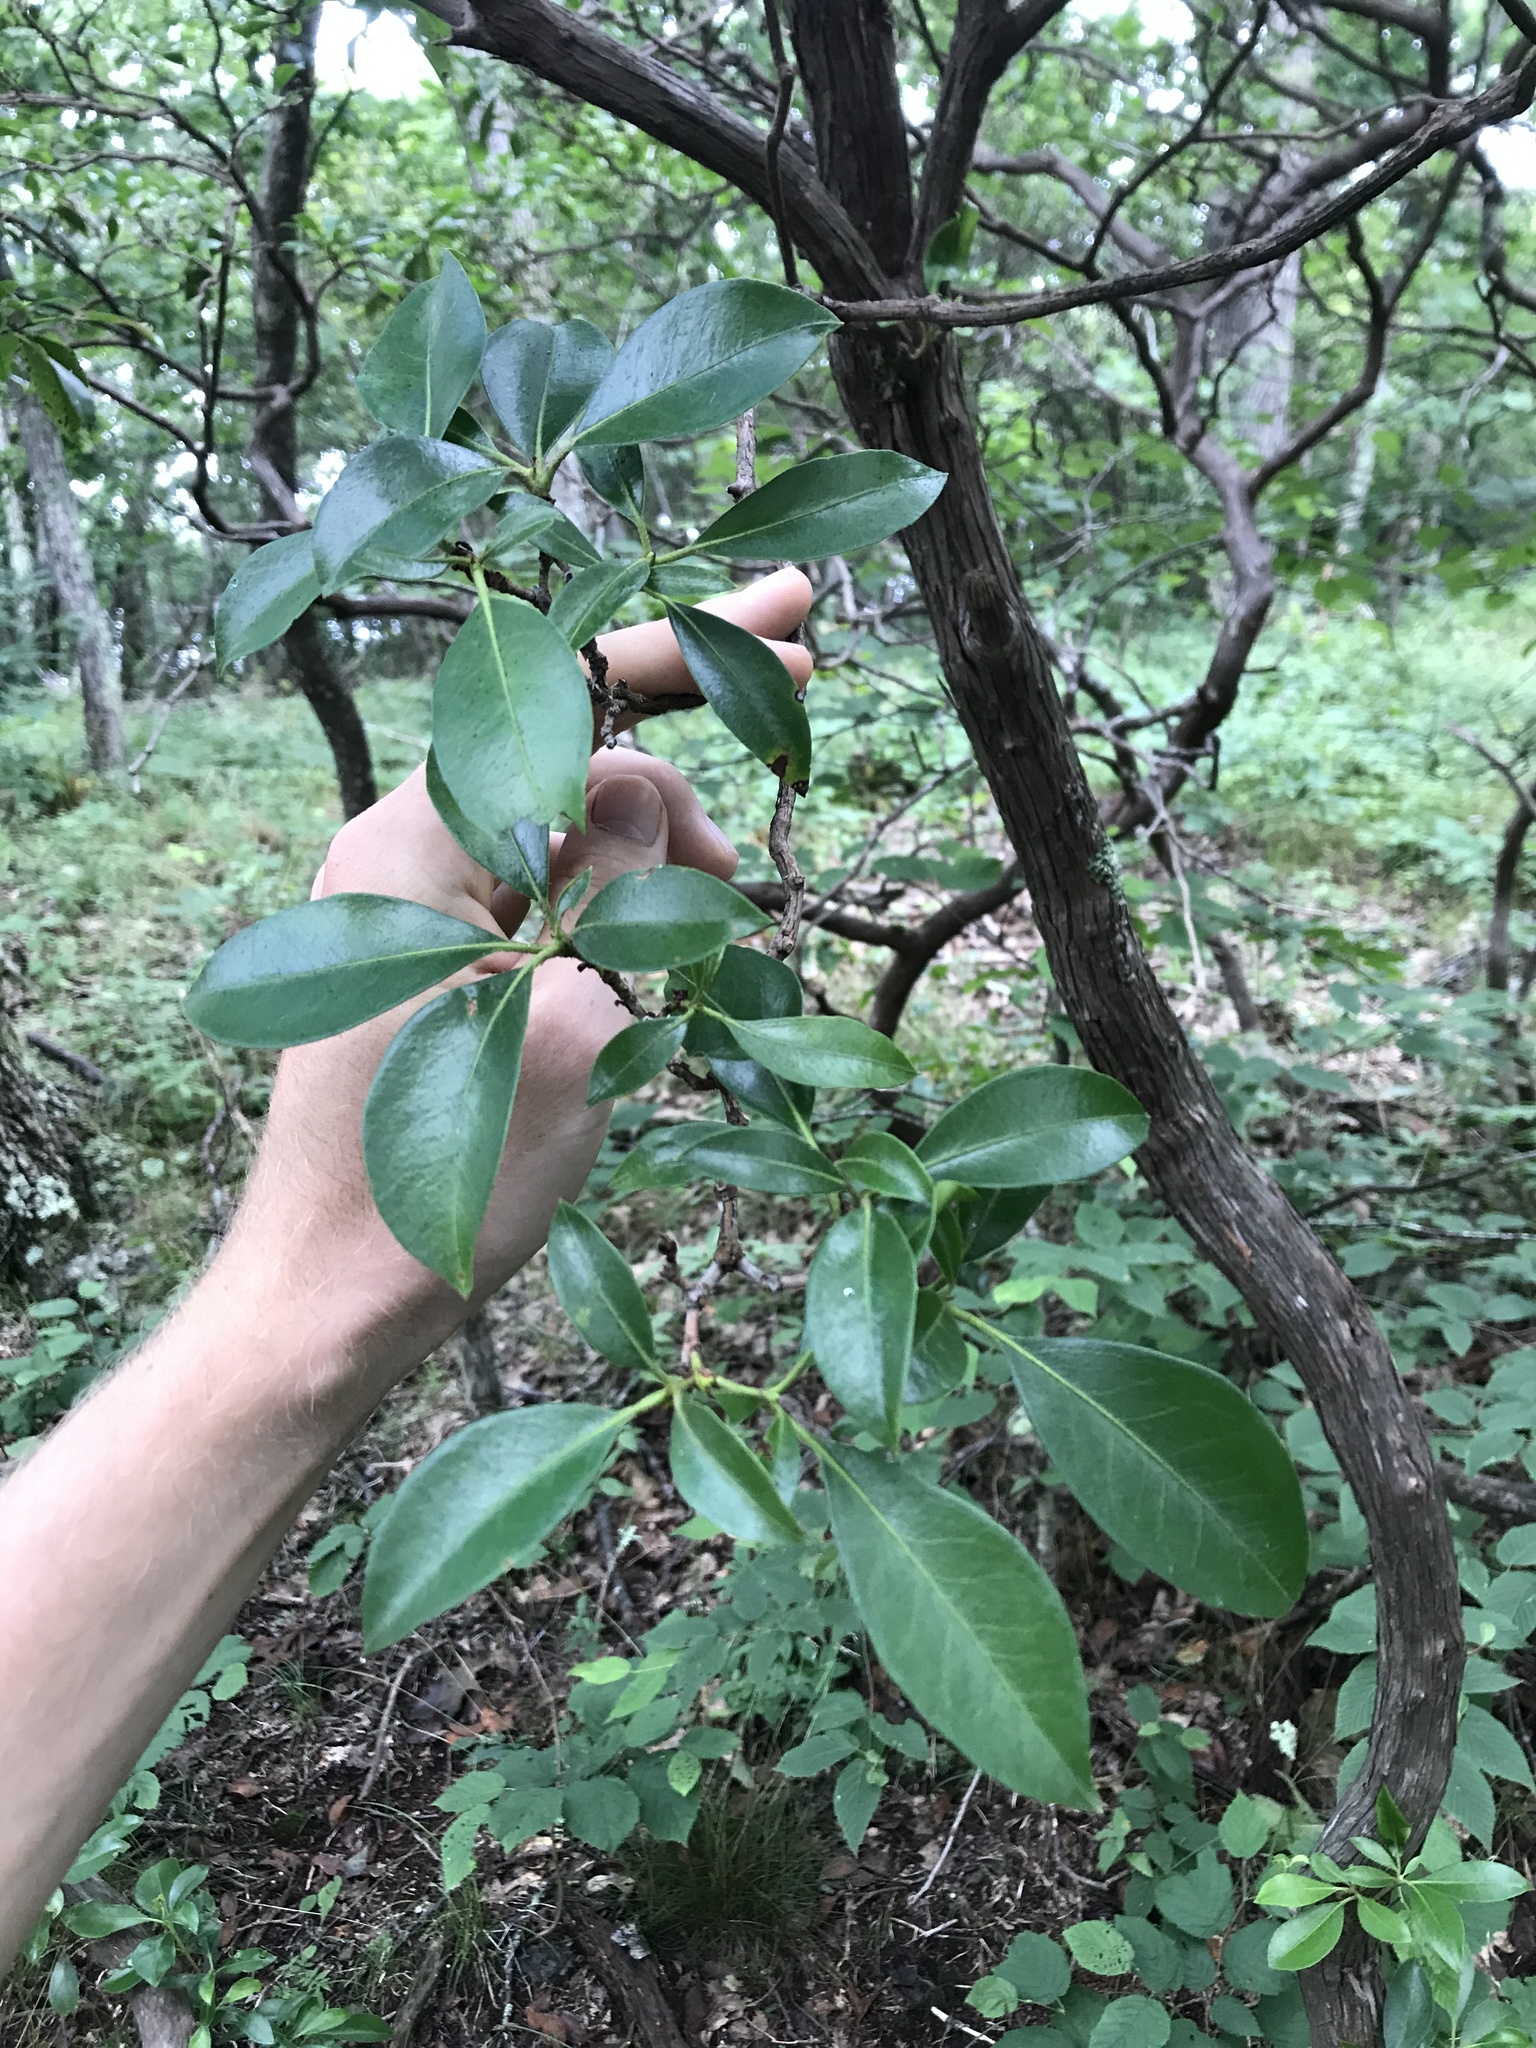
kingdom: Plantae
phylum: Tracheophyta
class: Magnoliopsida
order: Ericales
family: Ericaceae
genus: Kalmia
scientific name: Kalmia latifolia
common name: Mountain-laurel
